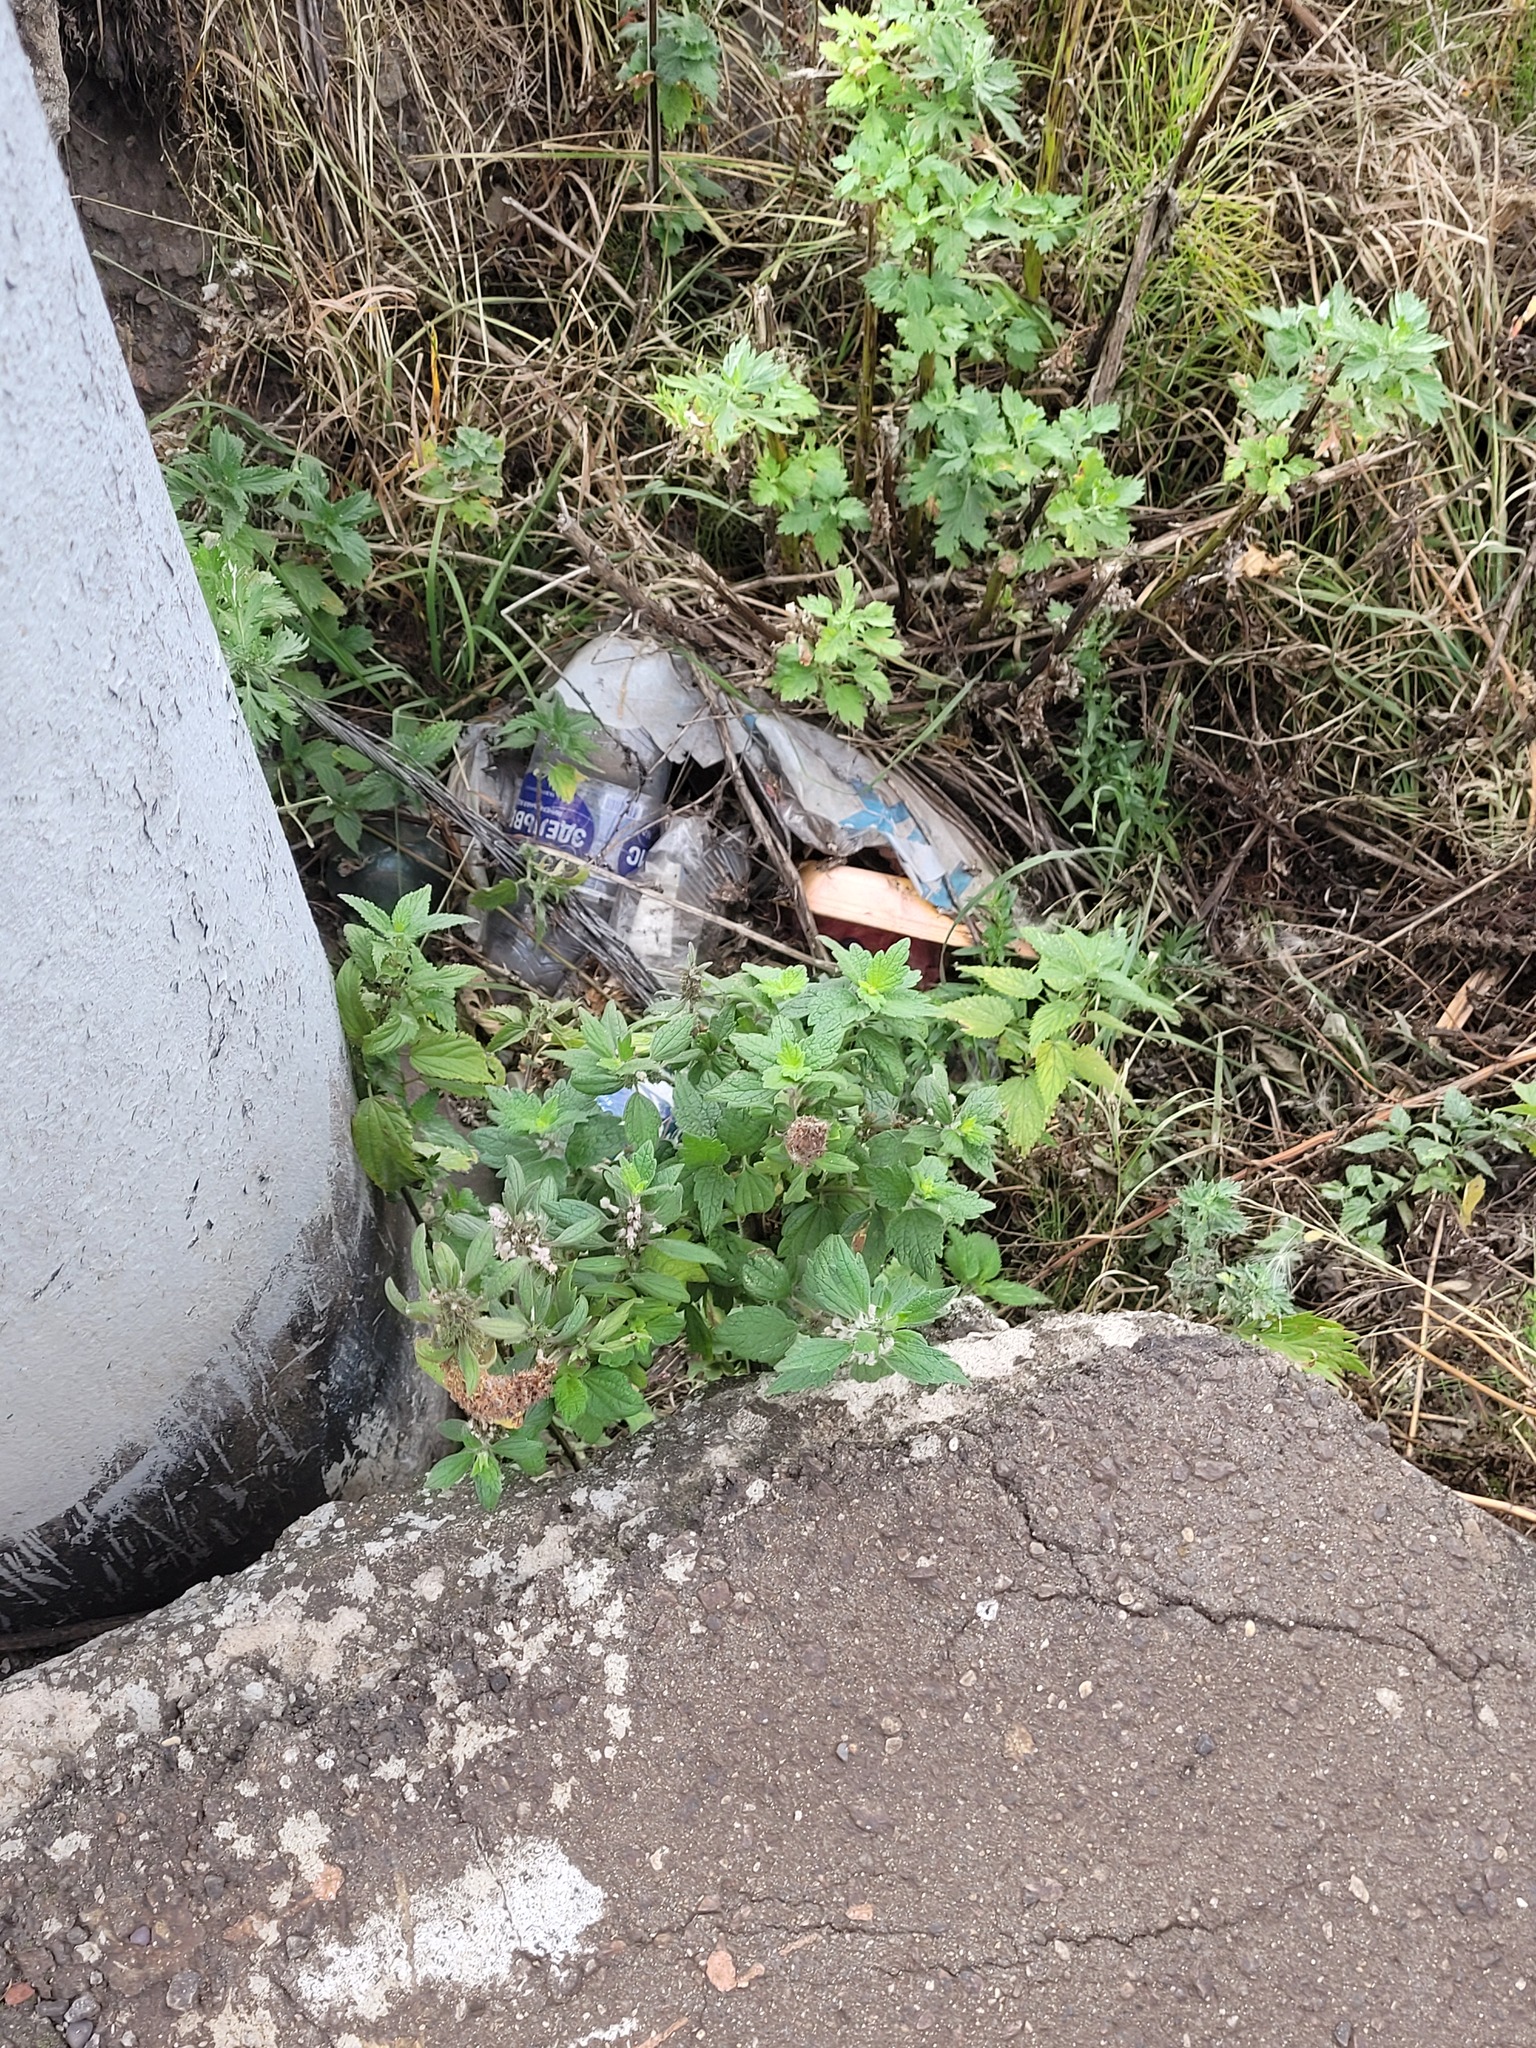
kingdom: Plantae
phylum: Tracheophyta
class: Magnoliopsida
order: Lamiales
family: Lamiaceae
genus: Leonurus
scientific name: Leonurus quinquelobatus
